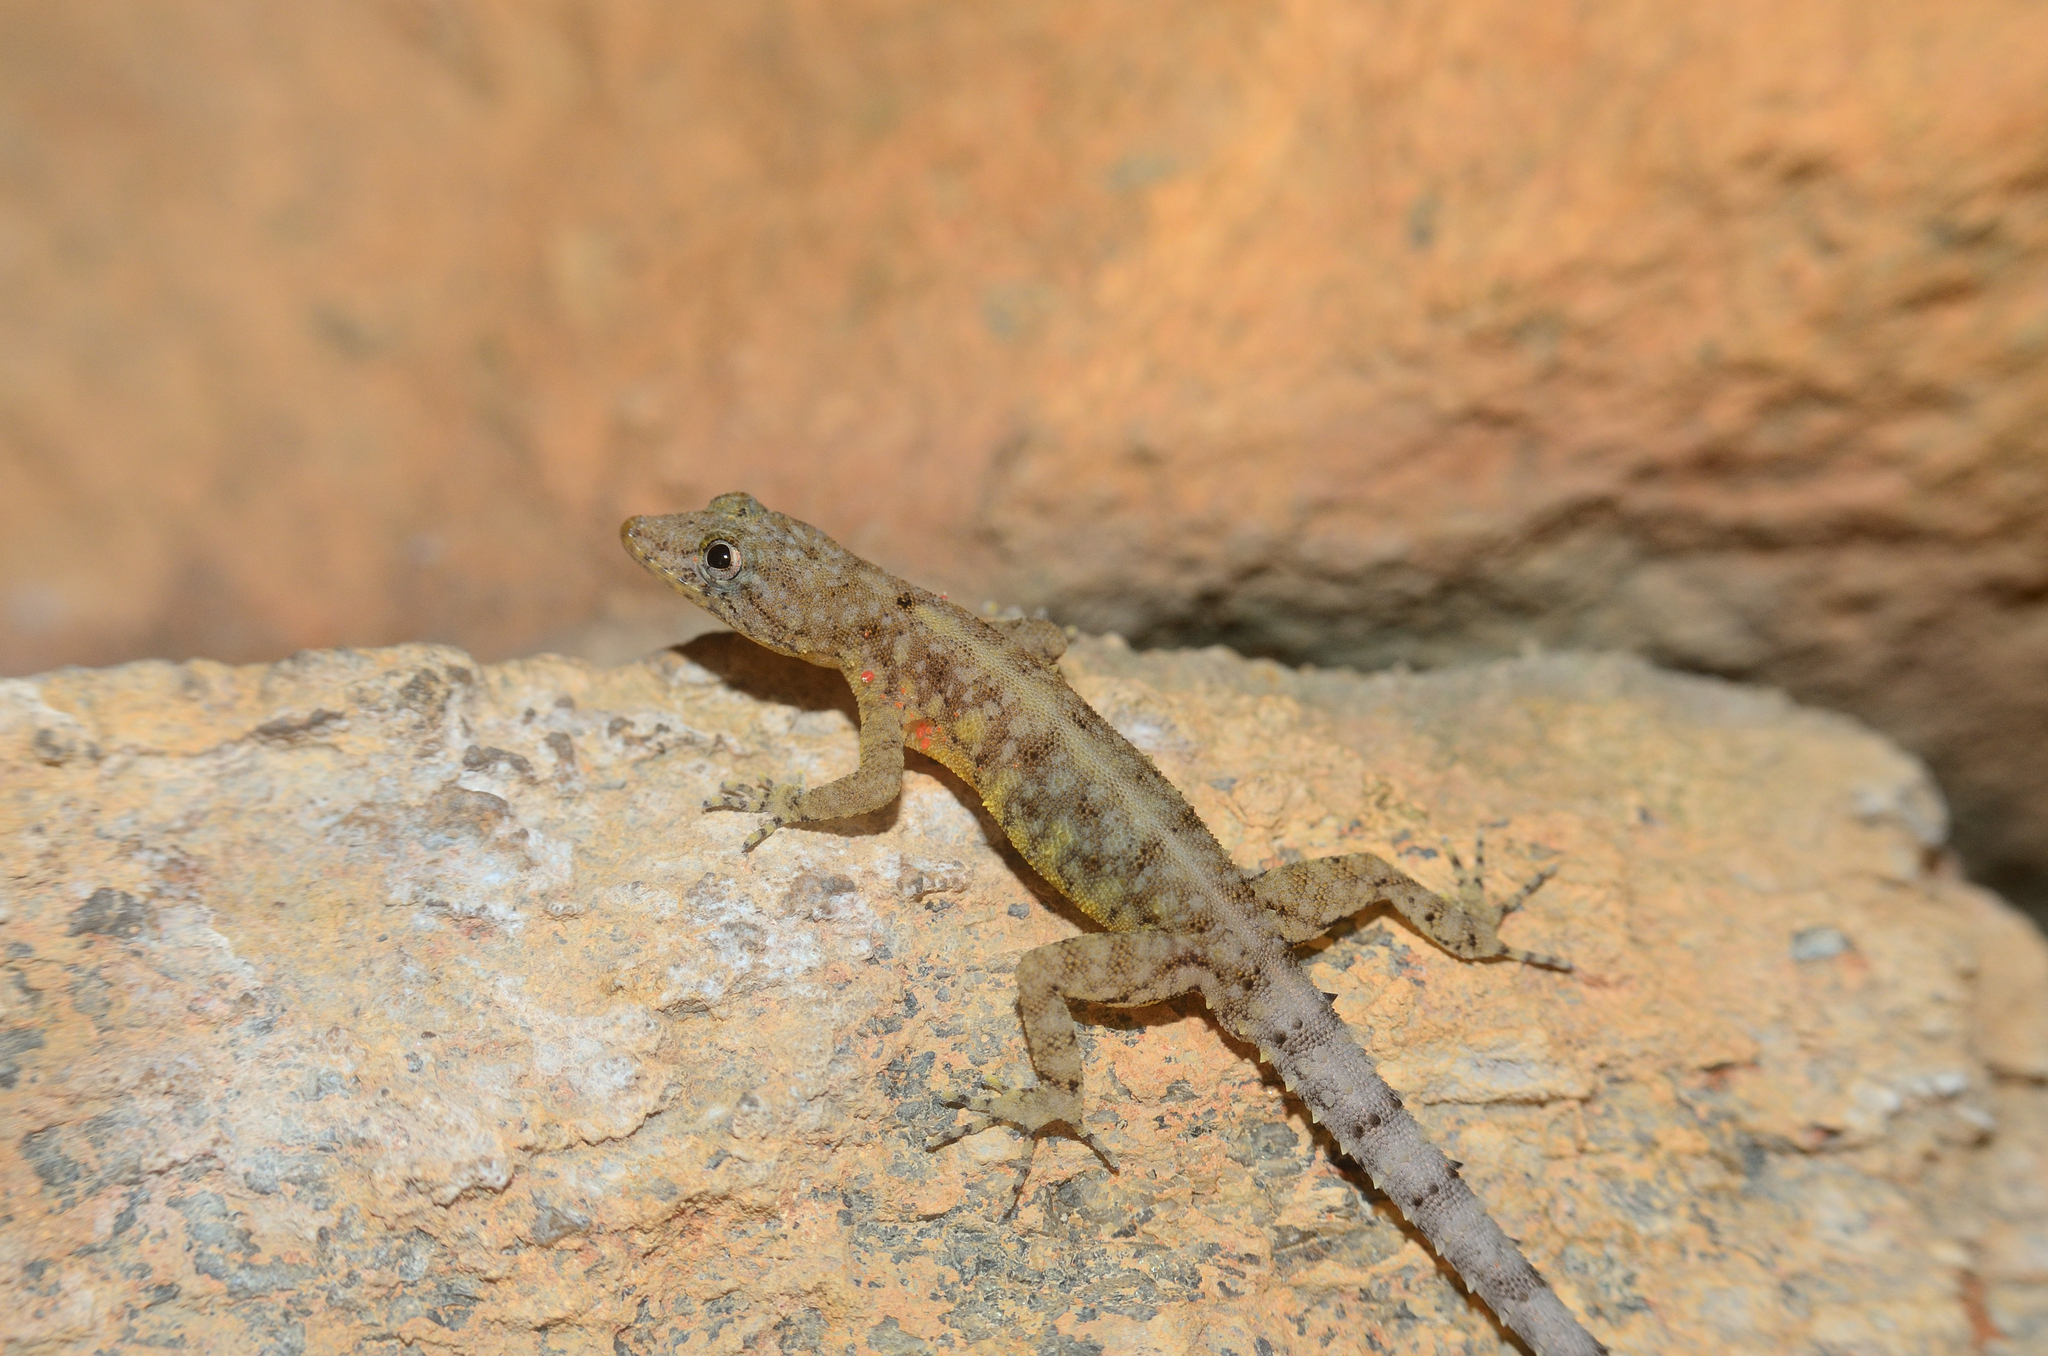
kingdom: Animalia
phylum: Chordata
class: Squamata
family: Gekkonidae
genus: Cnemaspis
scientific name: Cnemaspis mysoriensis
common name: Mysore day gecko
